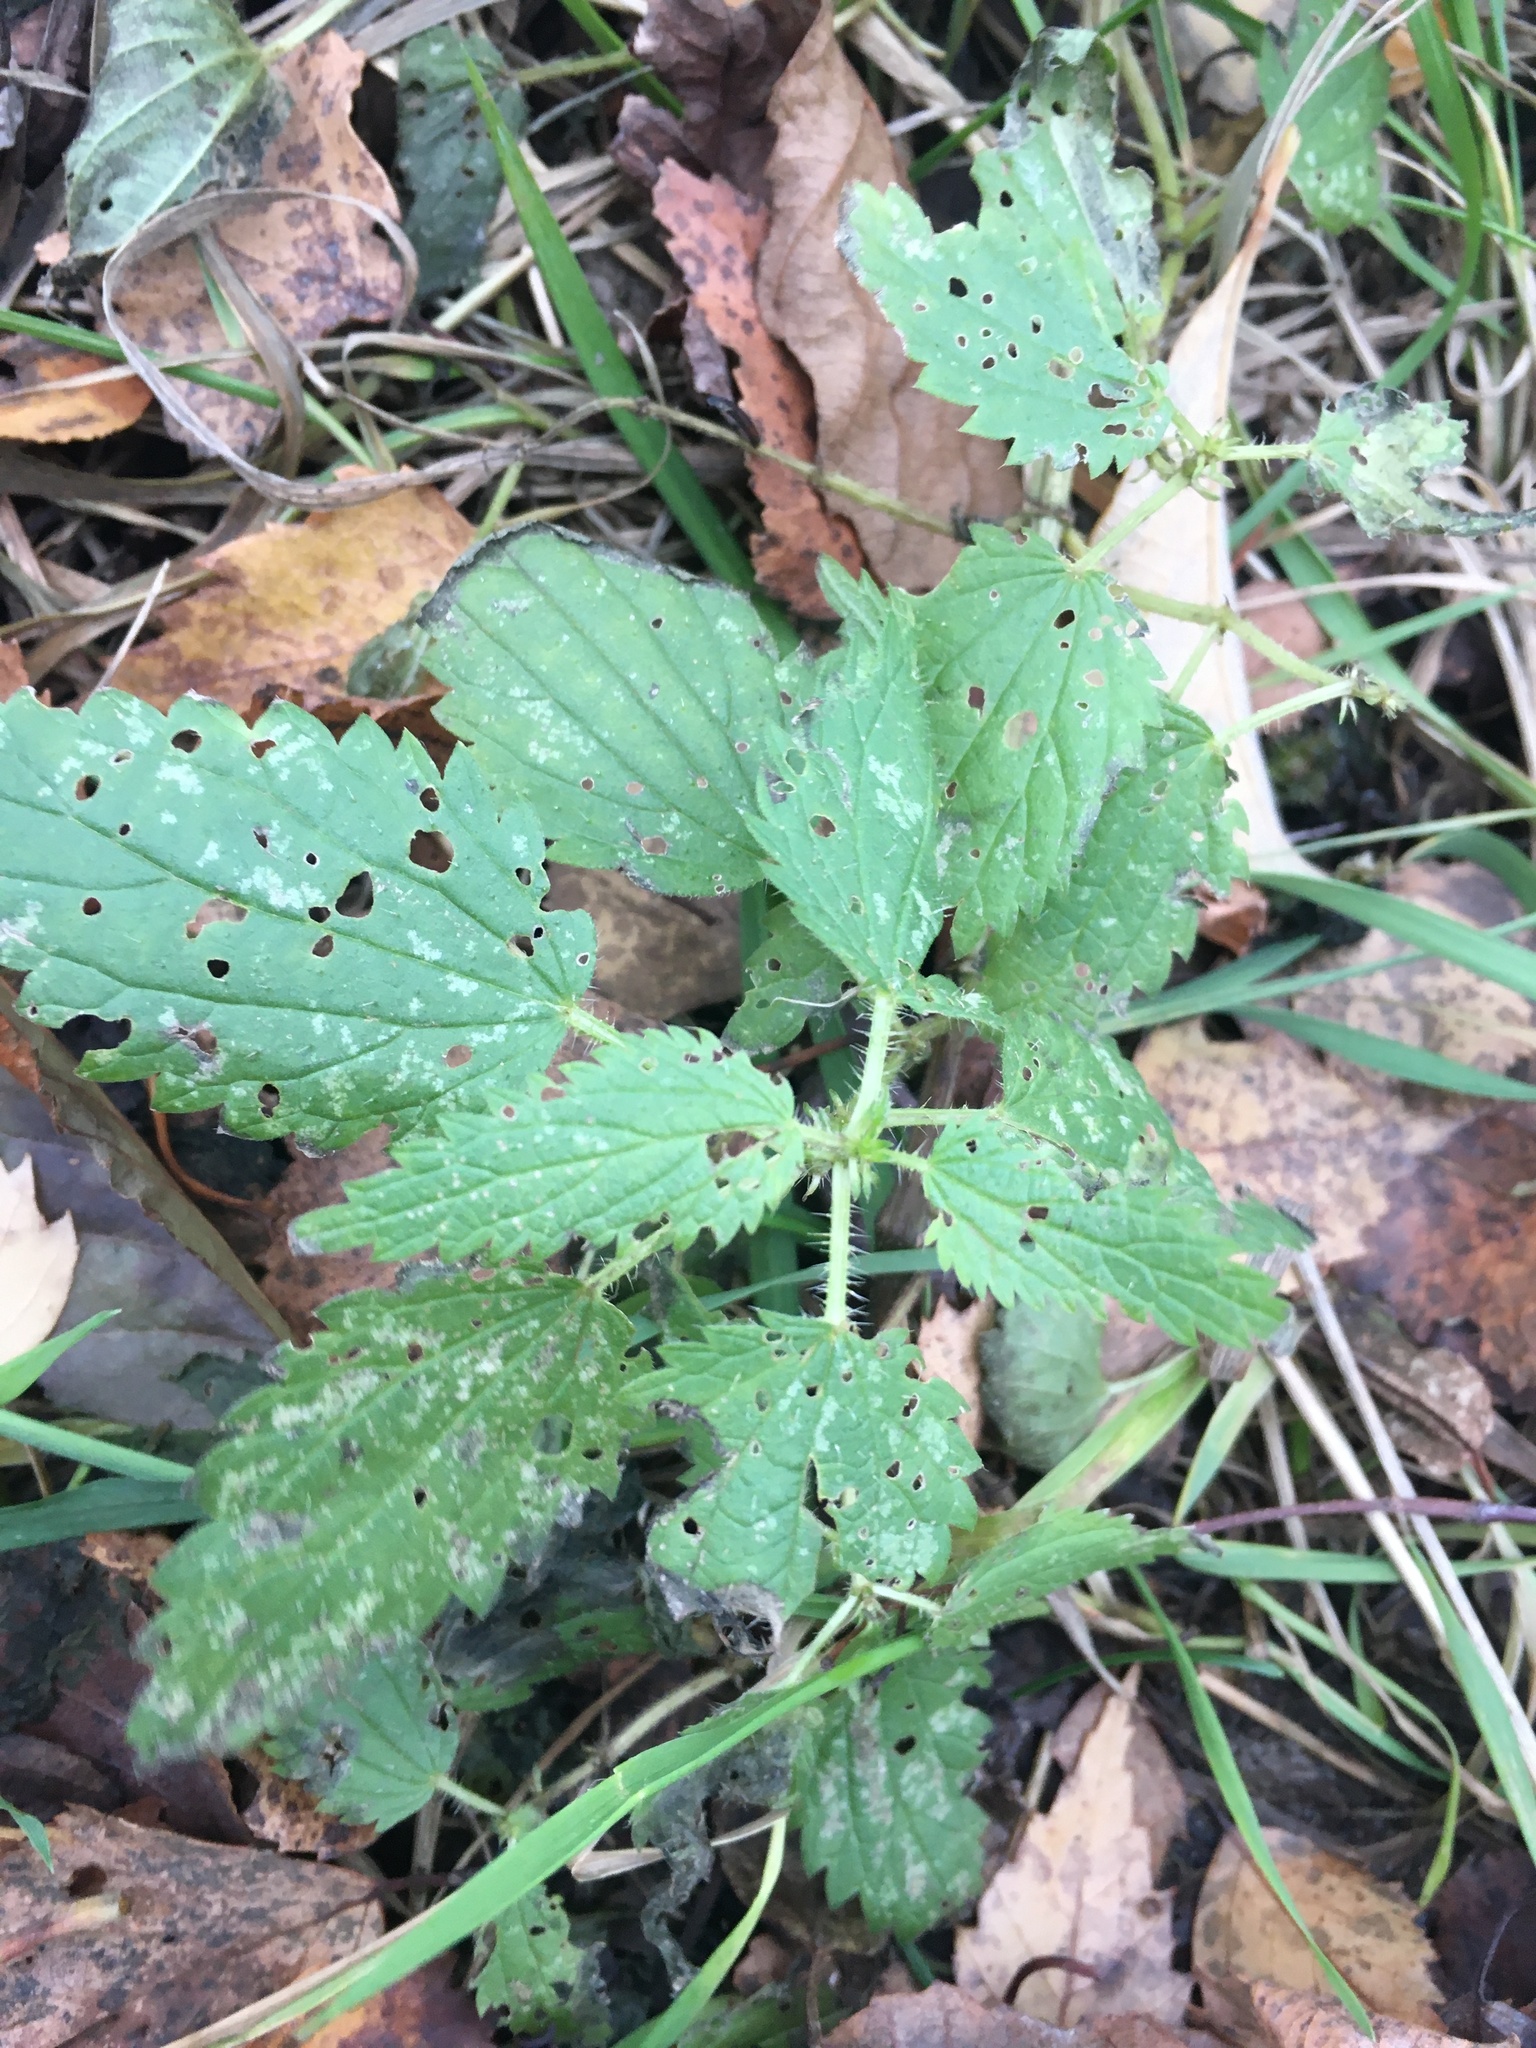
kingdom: Plantae
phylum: Tracheophyta
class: Magnoliopsida
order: Rosales
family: Urticaceae
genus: Urtica
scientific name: Urtica dioica
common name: Common nettle
